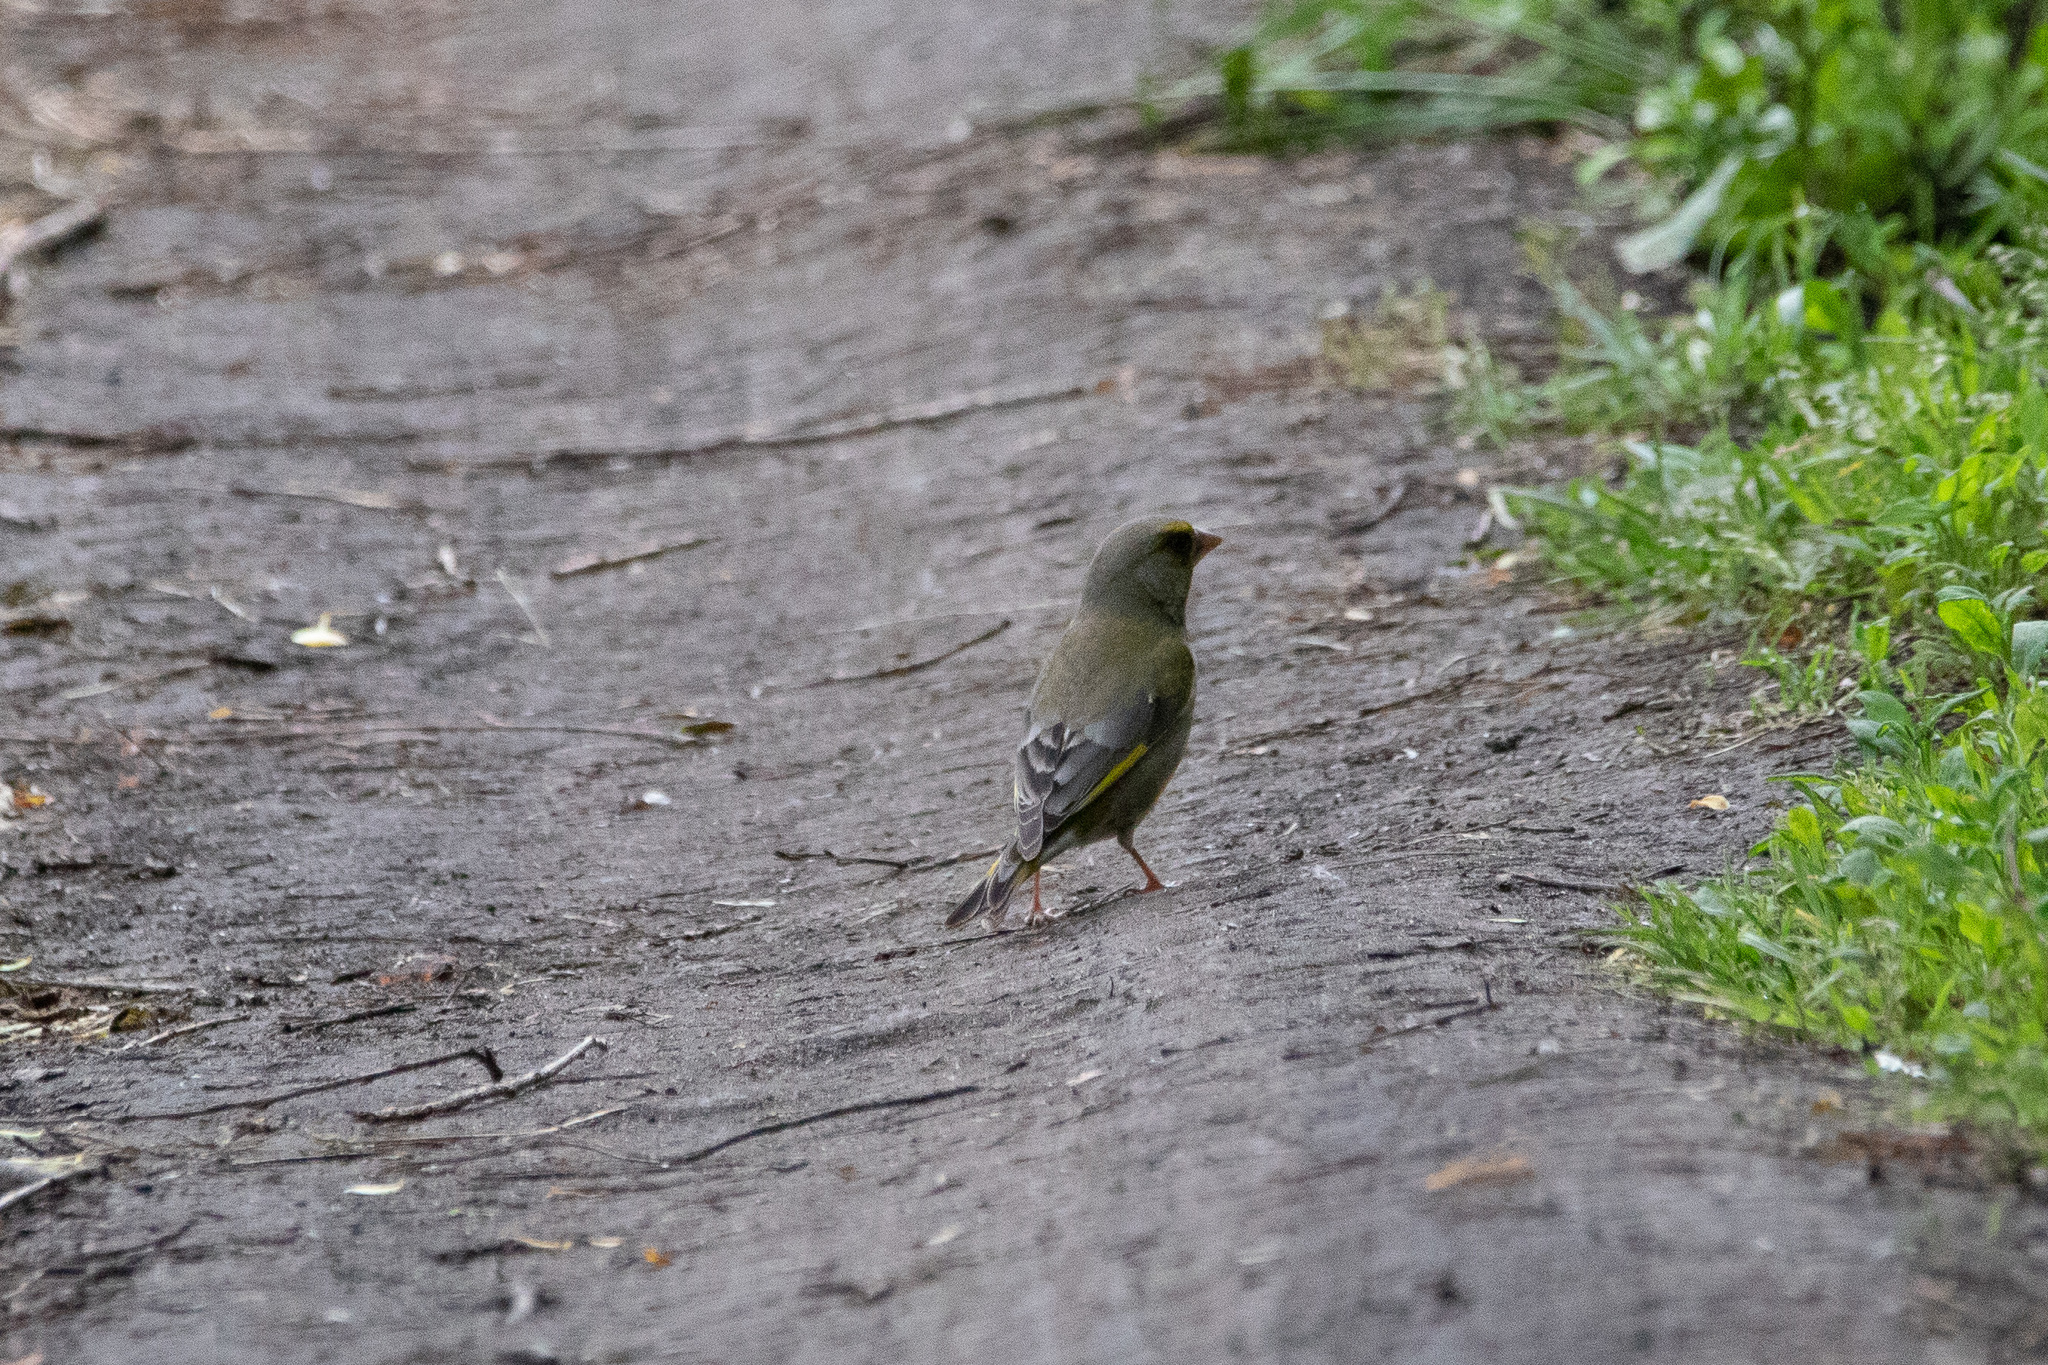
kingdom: Plantae
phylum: Tracheophyta
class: Liliopsida
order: Poales
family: Poaceae
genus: Chloris
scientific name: Chloris chloris
